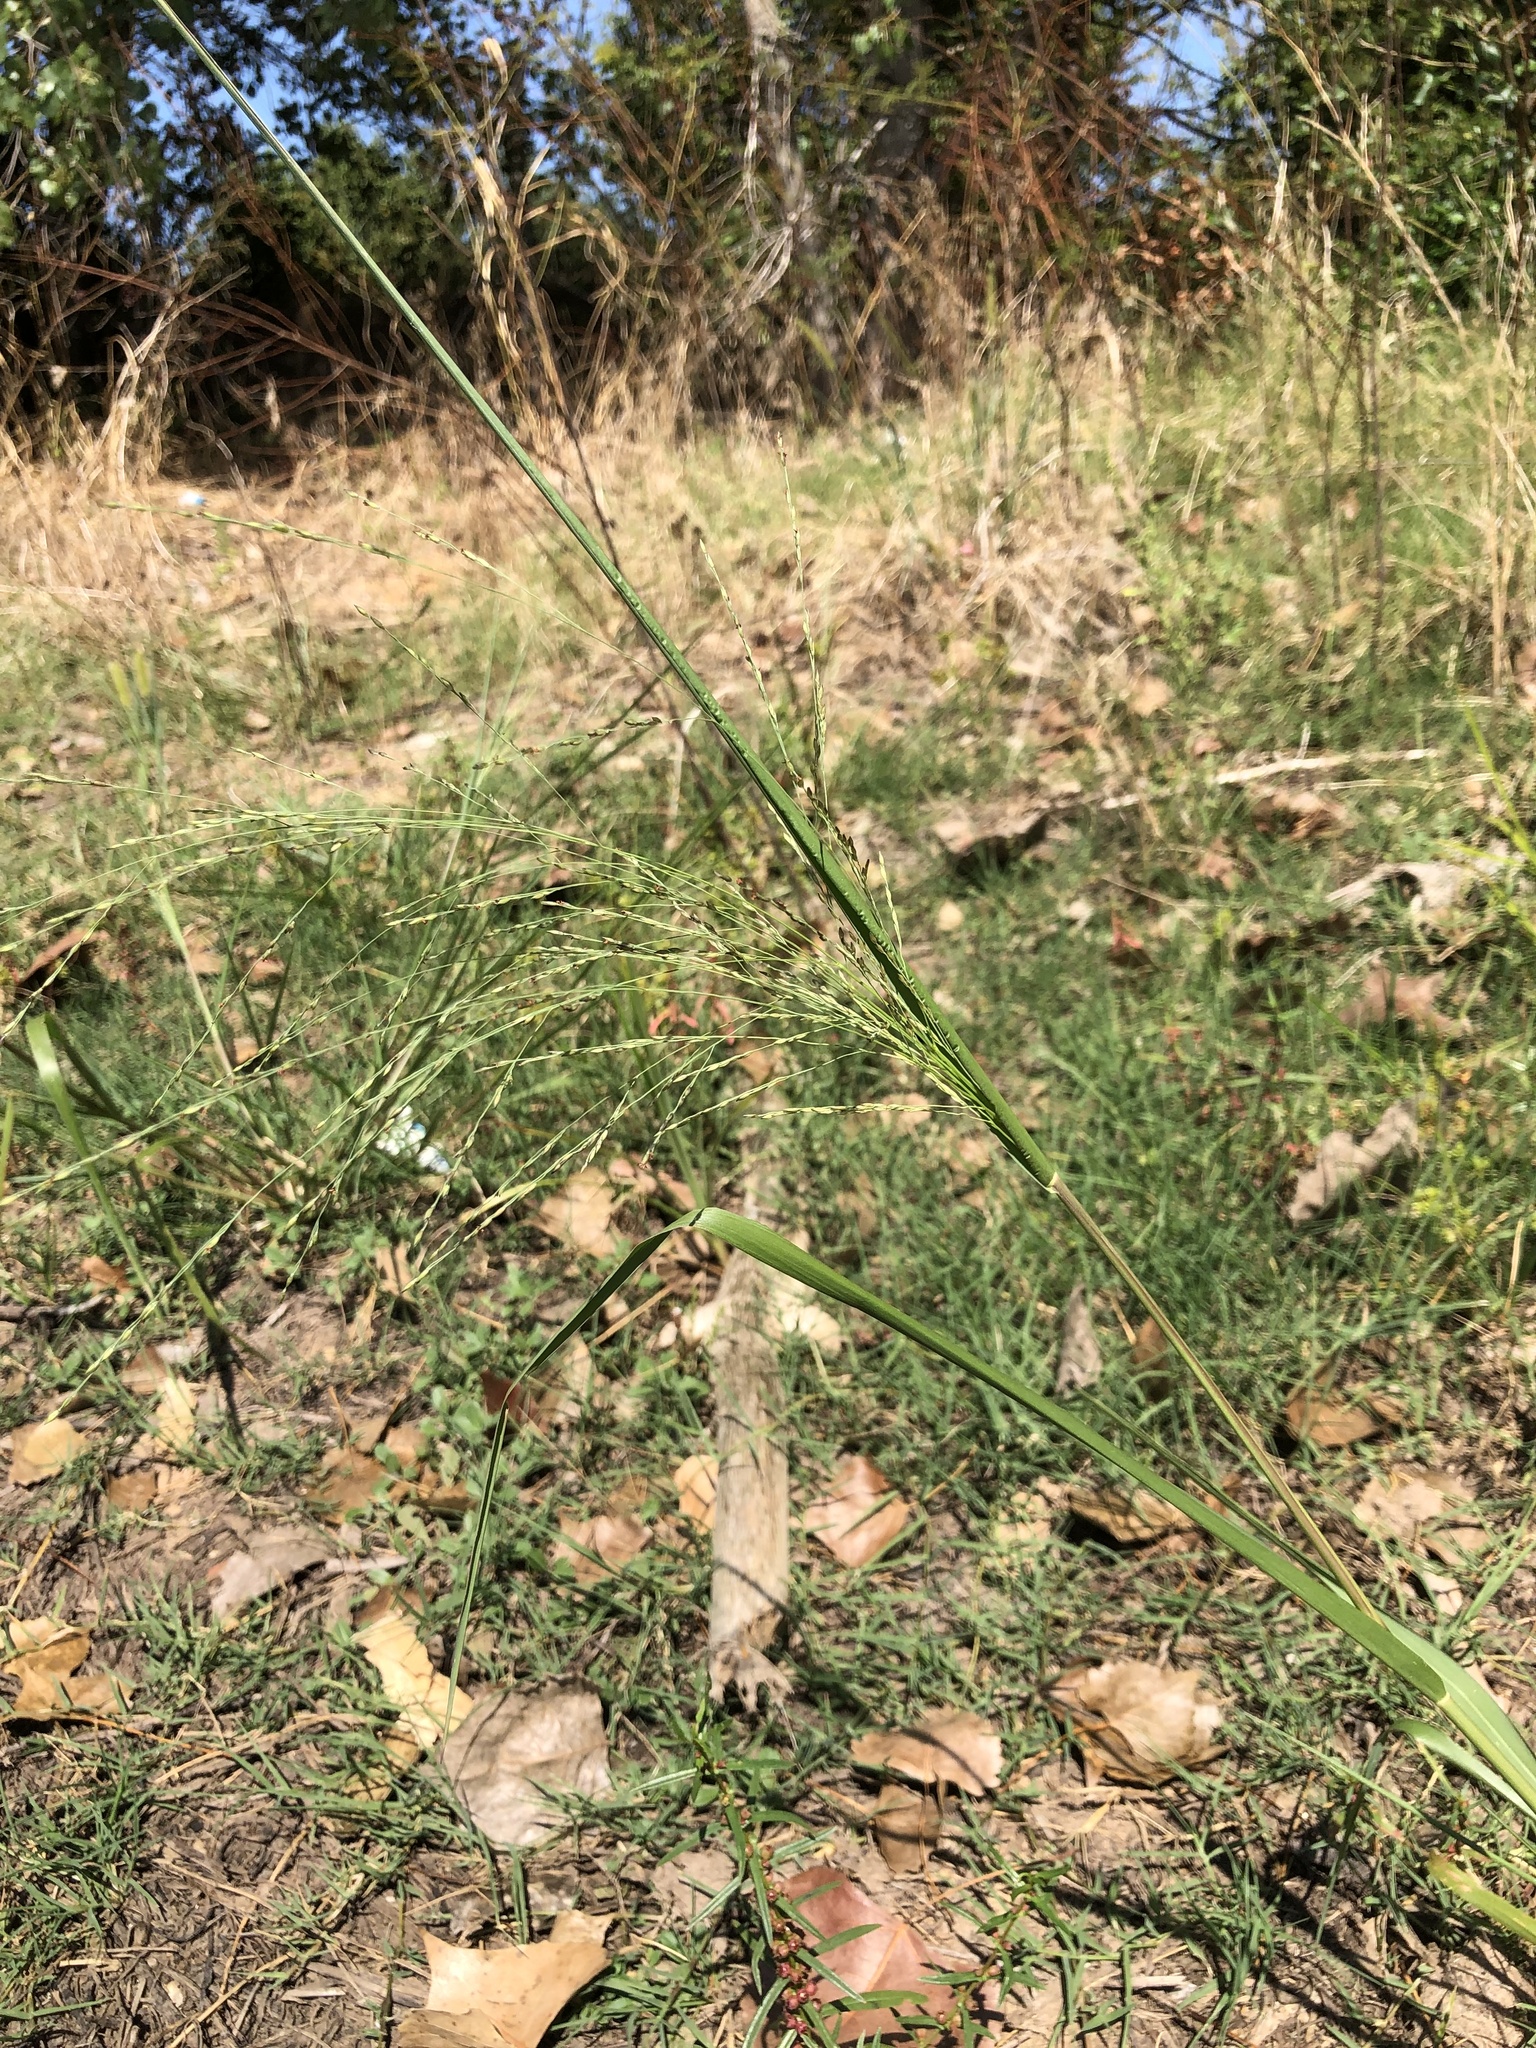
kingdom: Plantae
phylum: Tracheophyta
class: Liliopsida
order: Poales
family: Poaceae
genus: Panicum
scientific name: Panicum dichotomiflorum
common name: Autumn millet
